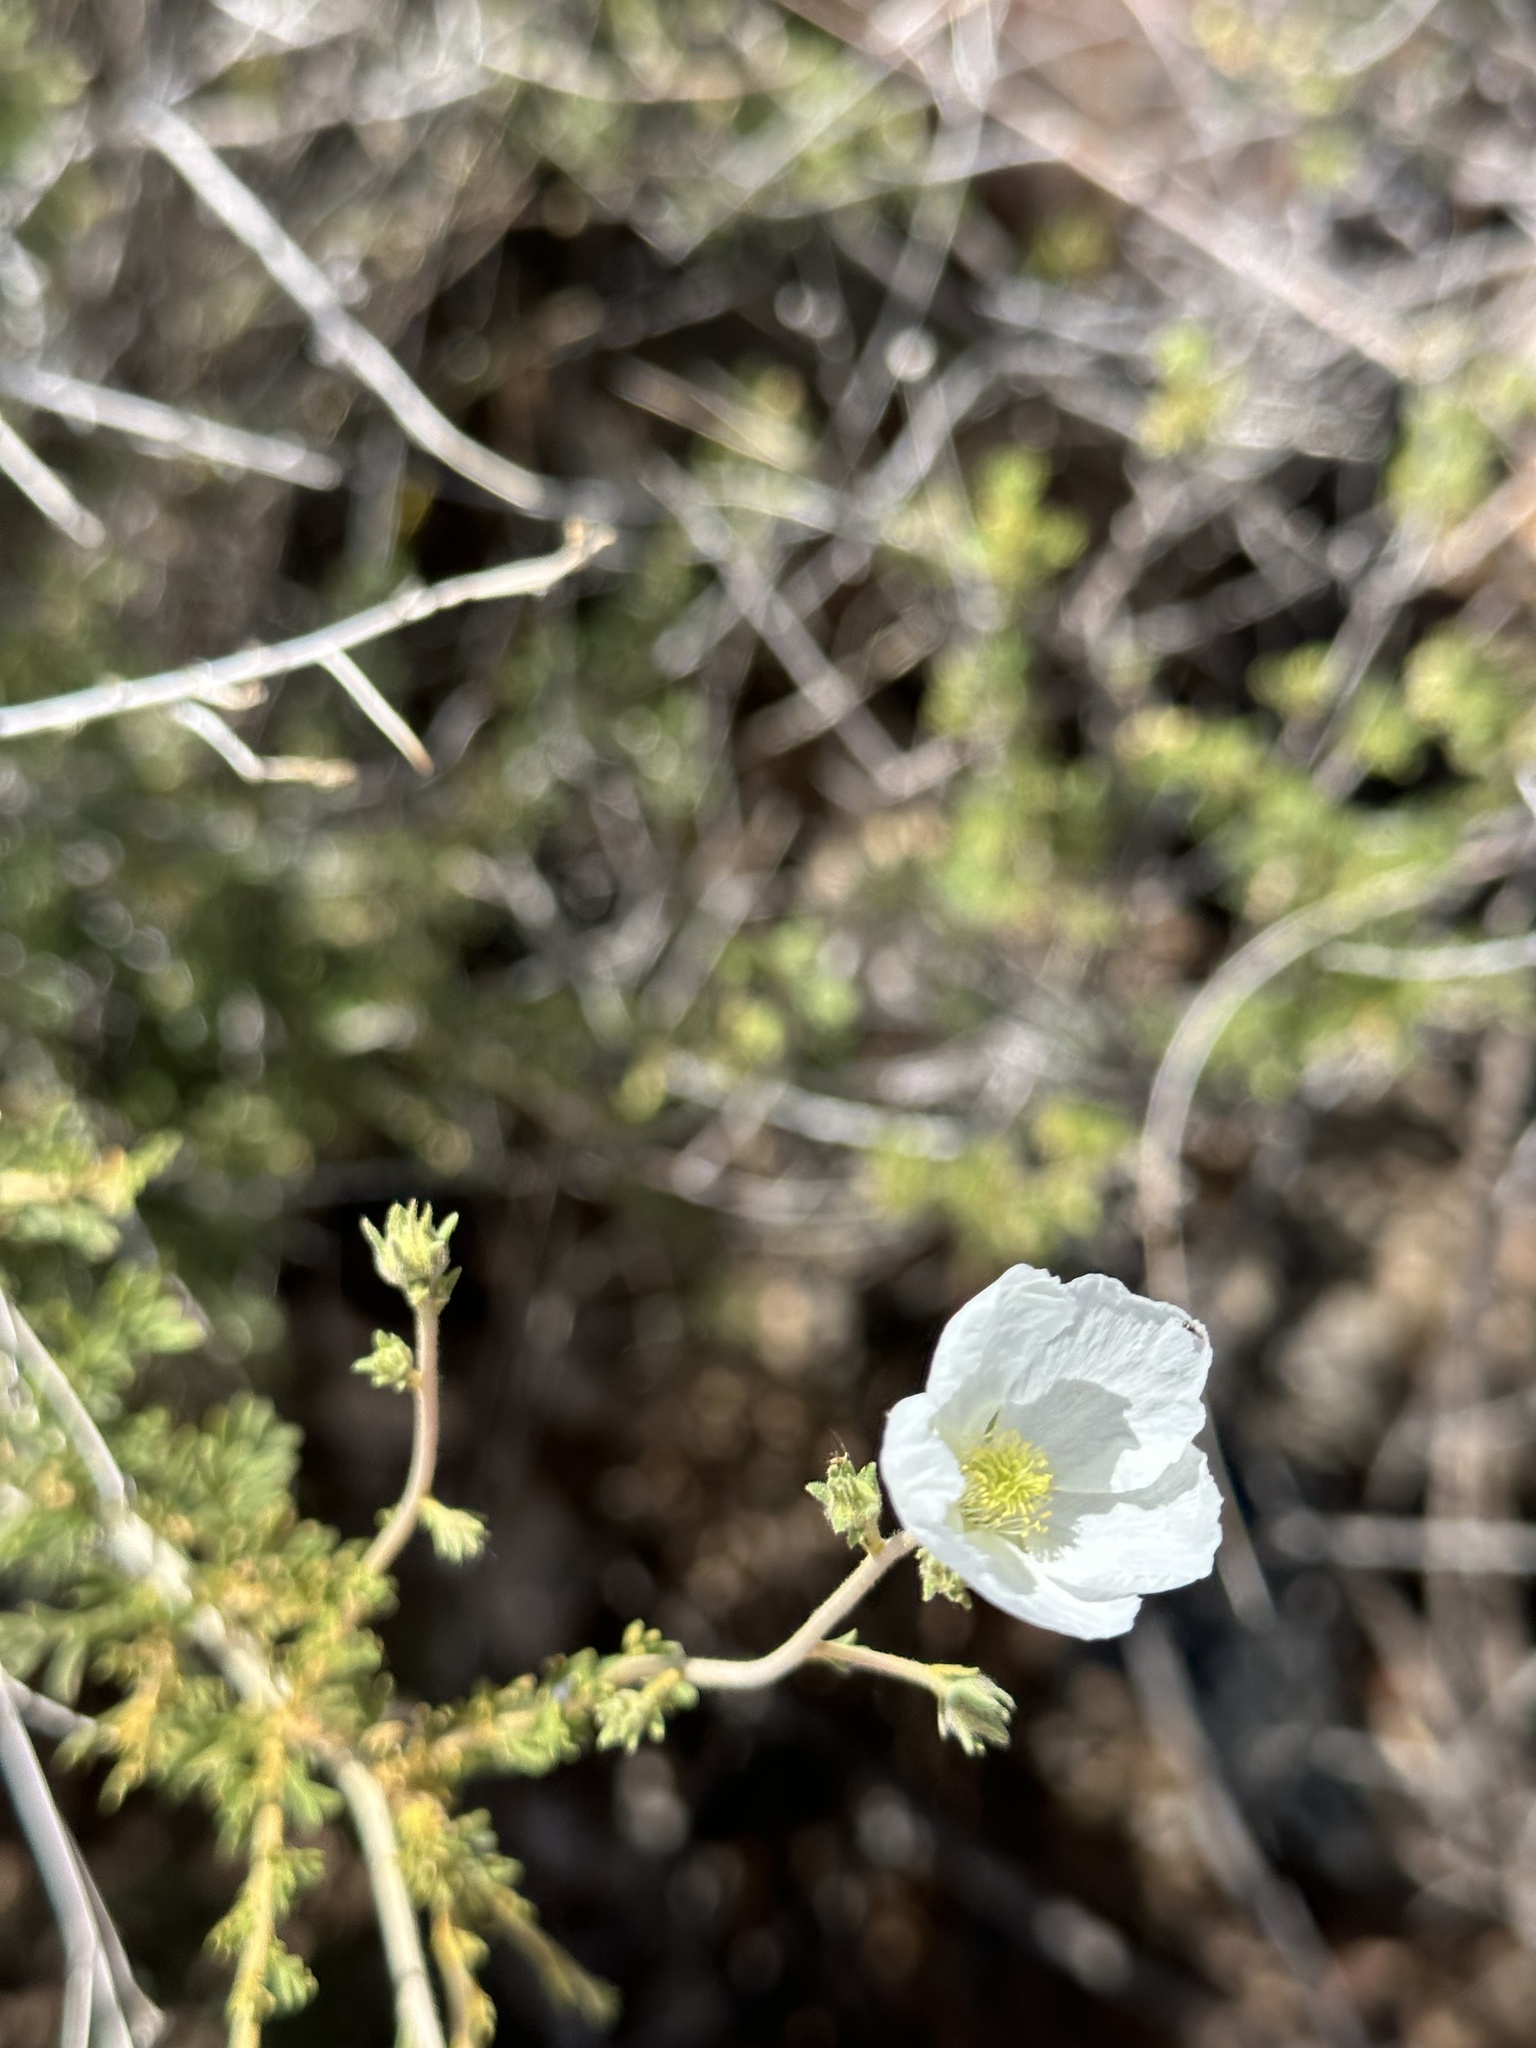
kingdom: Plantae
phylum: Tracheophyta
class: Magnoliopsida
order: Rosales
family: Rosaceae
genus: Fallugia
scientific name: Fallugia paradoxa
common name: Apache-plume
